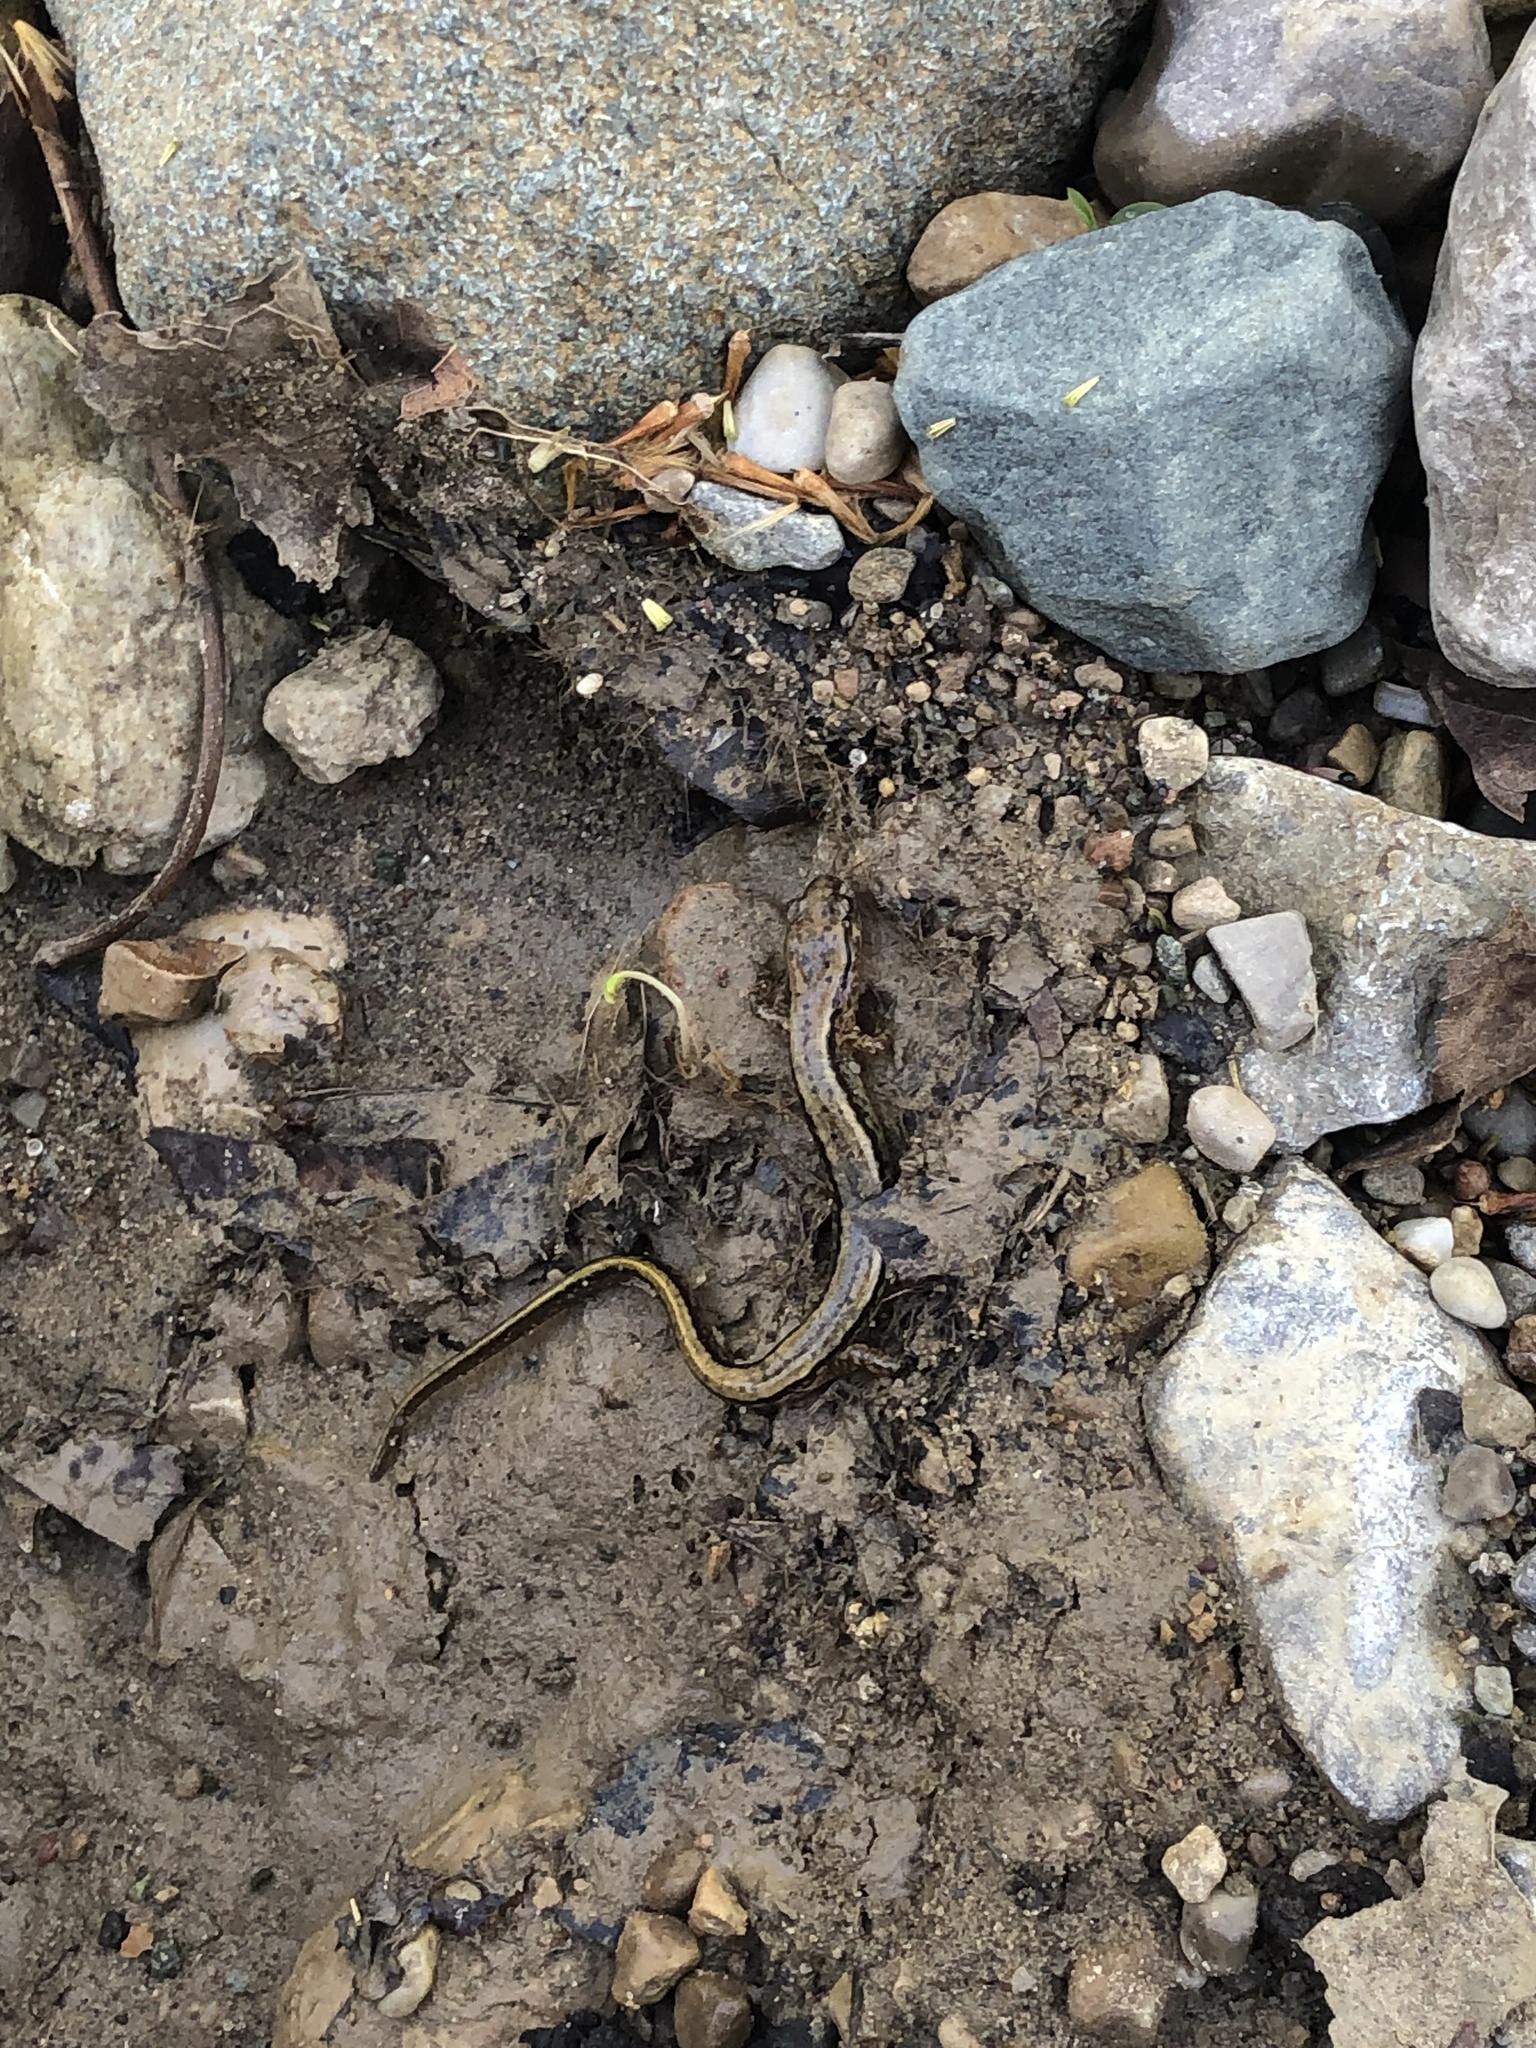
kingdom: Animalia
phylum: Chordata
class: Amphibia
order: Caudata
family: Plethodontidae
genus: Eurycea
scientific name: Eurycea cirrigera
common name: Southern two-lined salamander
